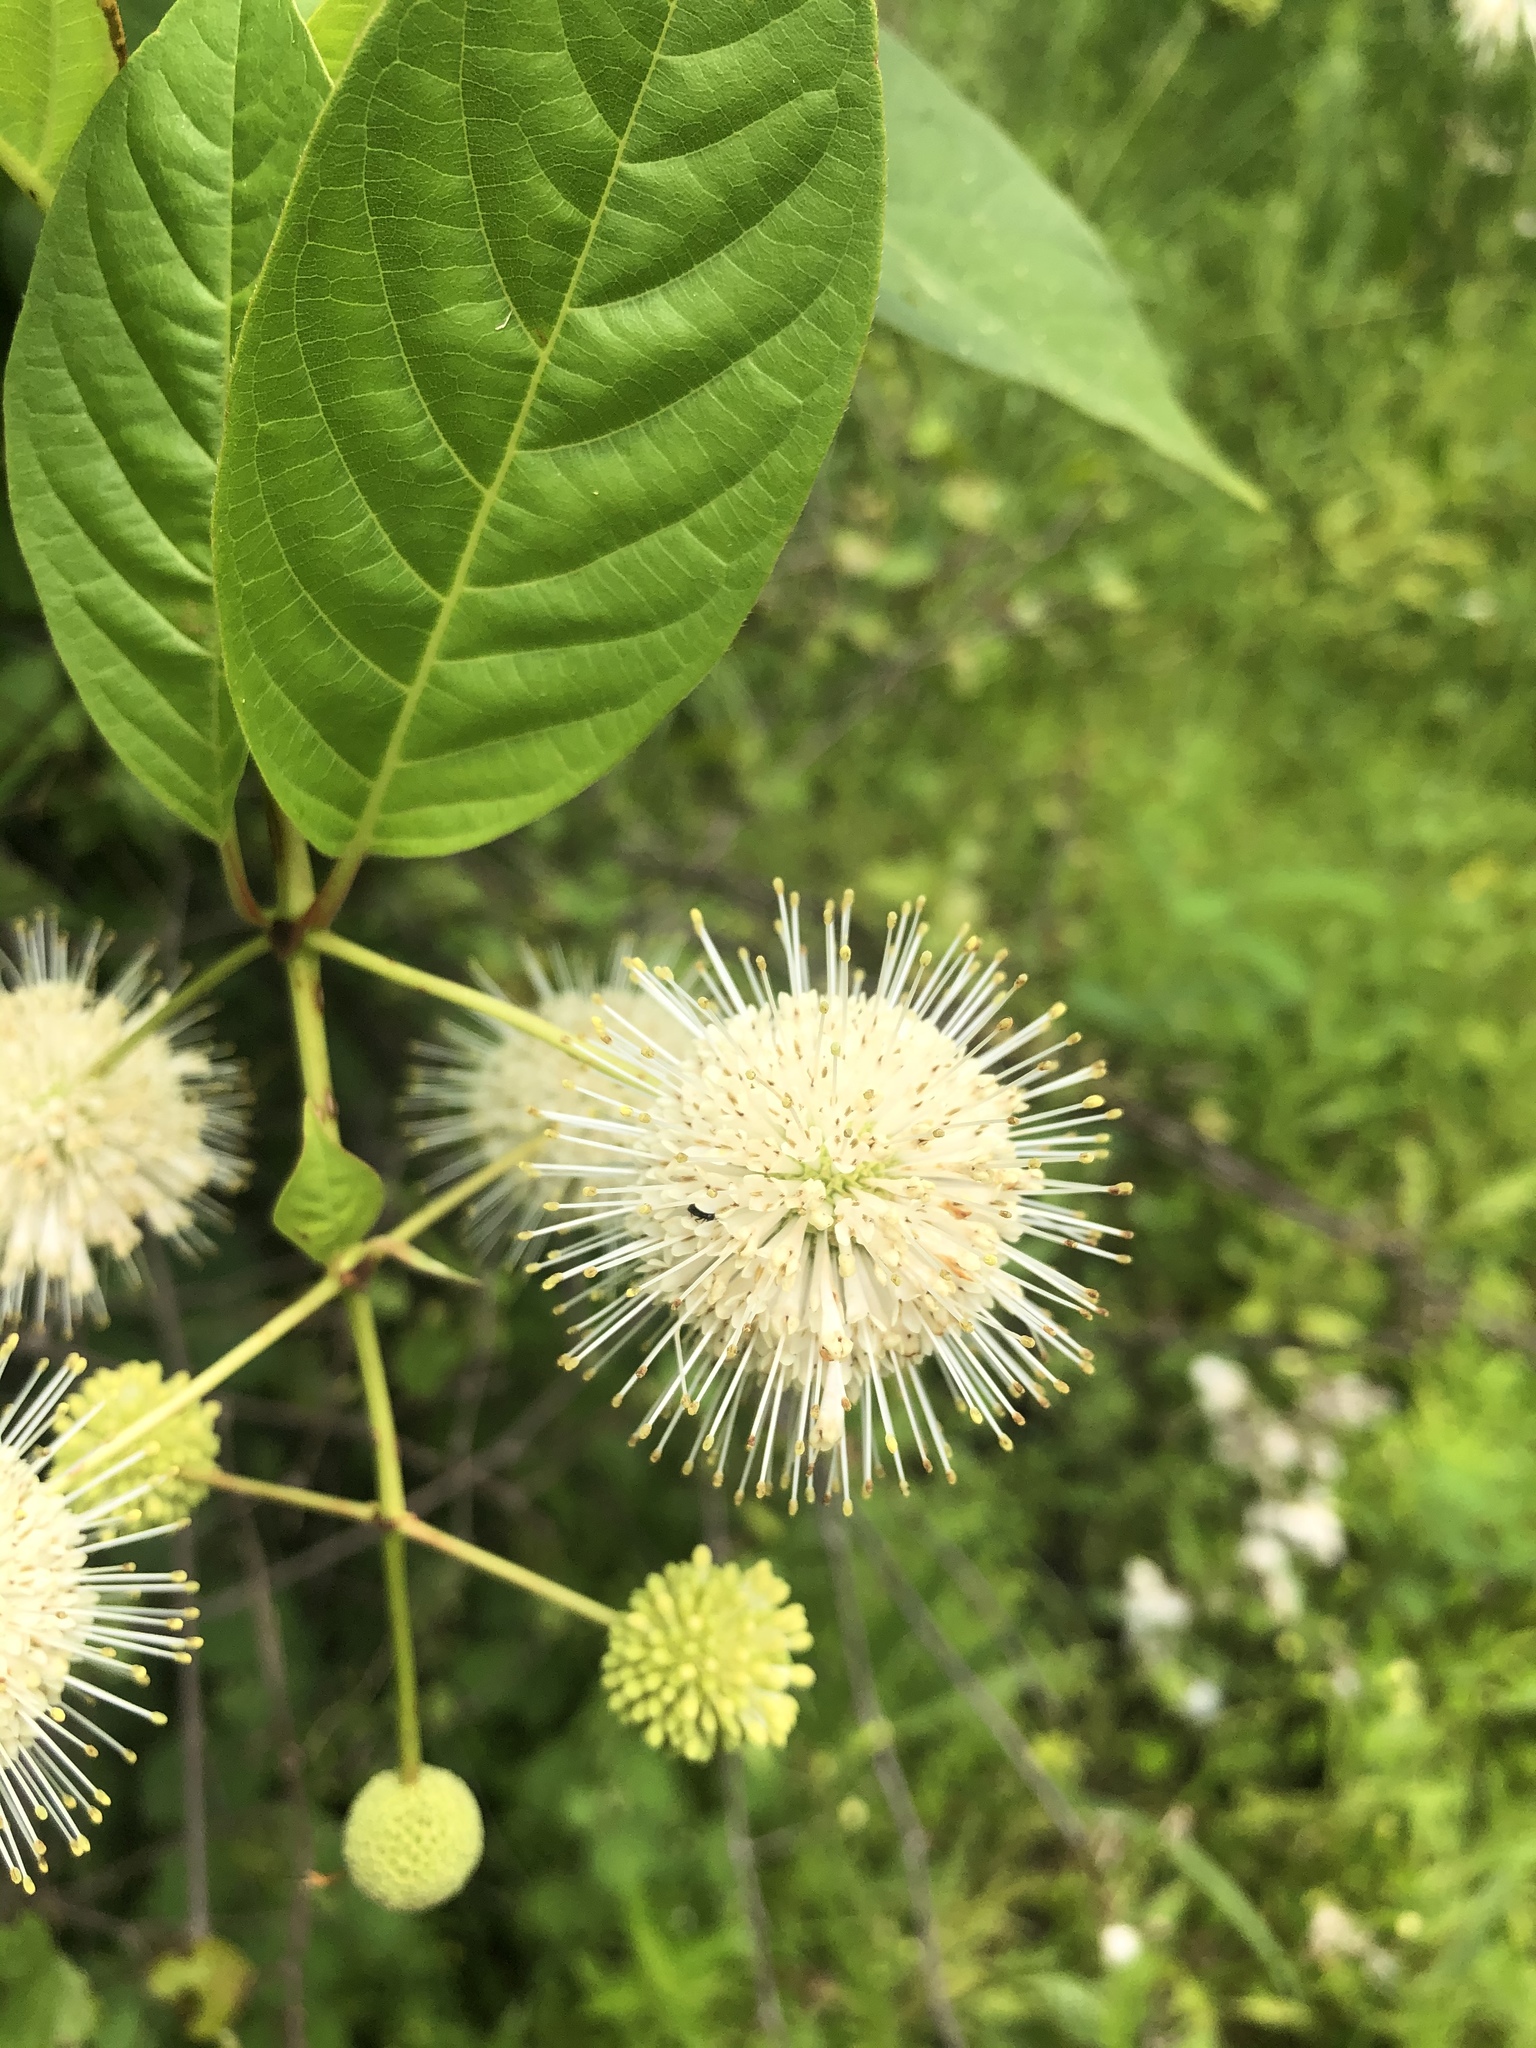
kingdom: Plantae
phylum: Tracheophyta
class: Magnoliopsida
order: Gentianales
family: Rubiaceae
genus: Cephalanthus
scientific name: Cephalanthus occidentalis
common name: Button-willow
